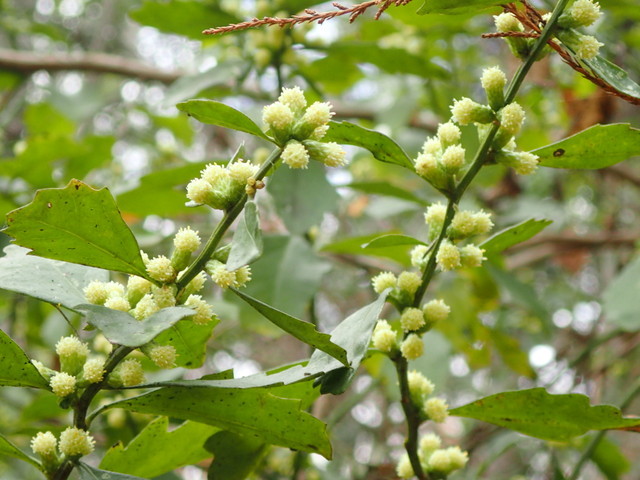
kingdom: Plantae
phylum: Tracheophyta
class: Magnoliopsida
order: Asterales
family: Asteraceae
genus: Baccharis
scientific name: Baccharis glomeruliflora
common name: Silverling groundsel bush
